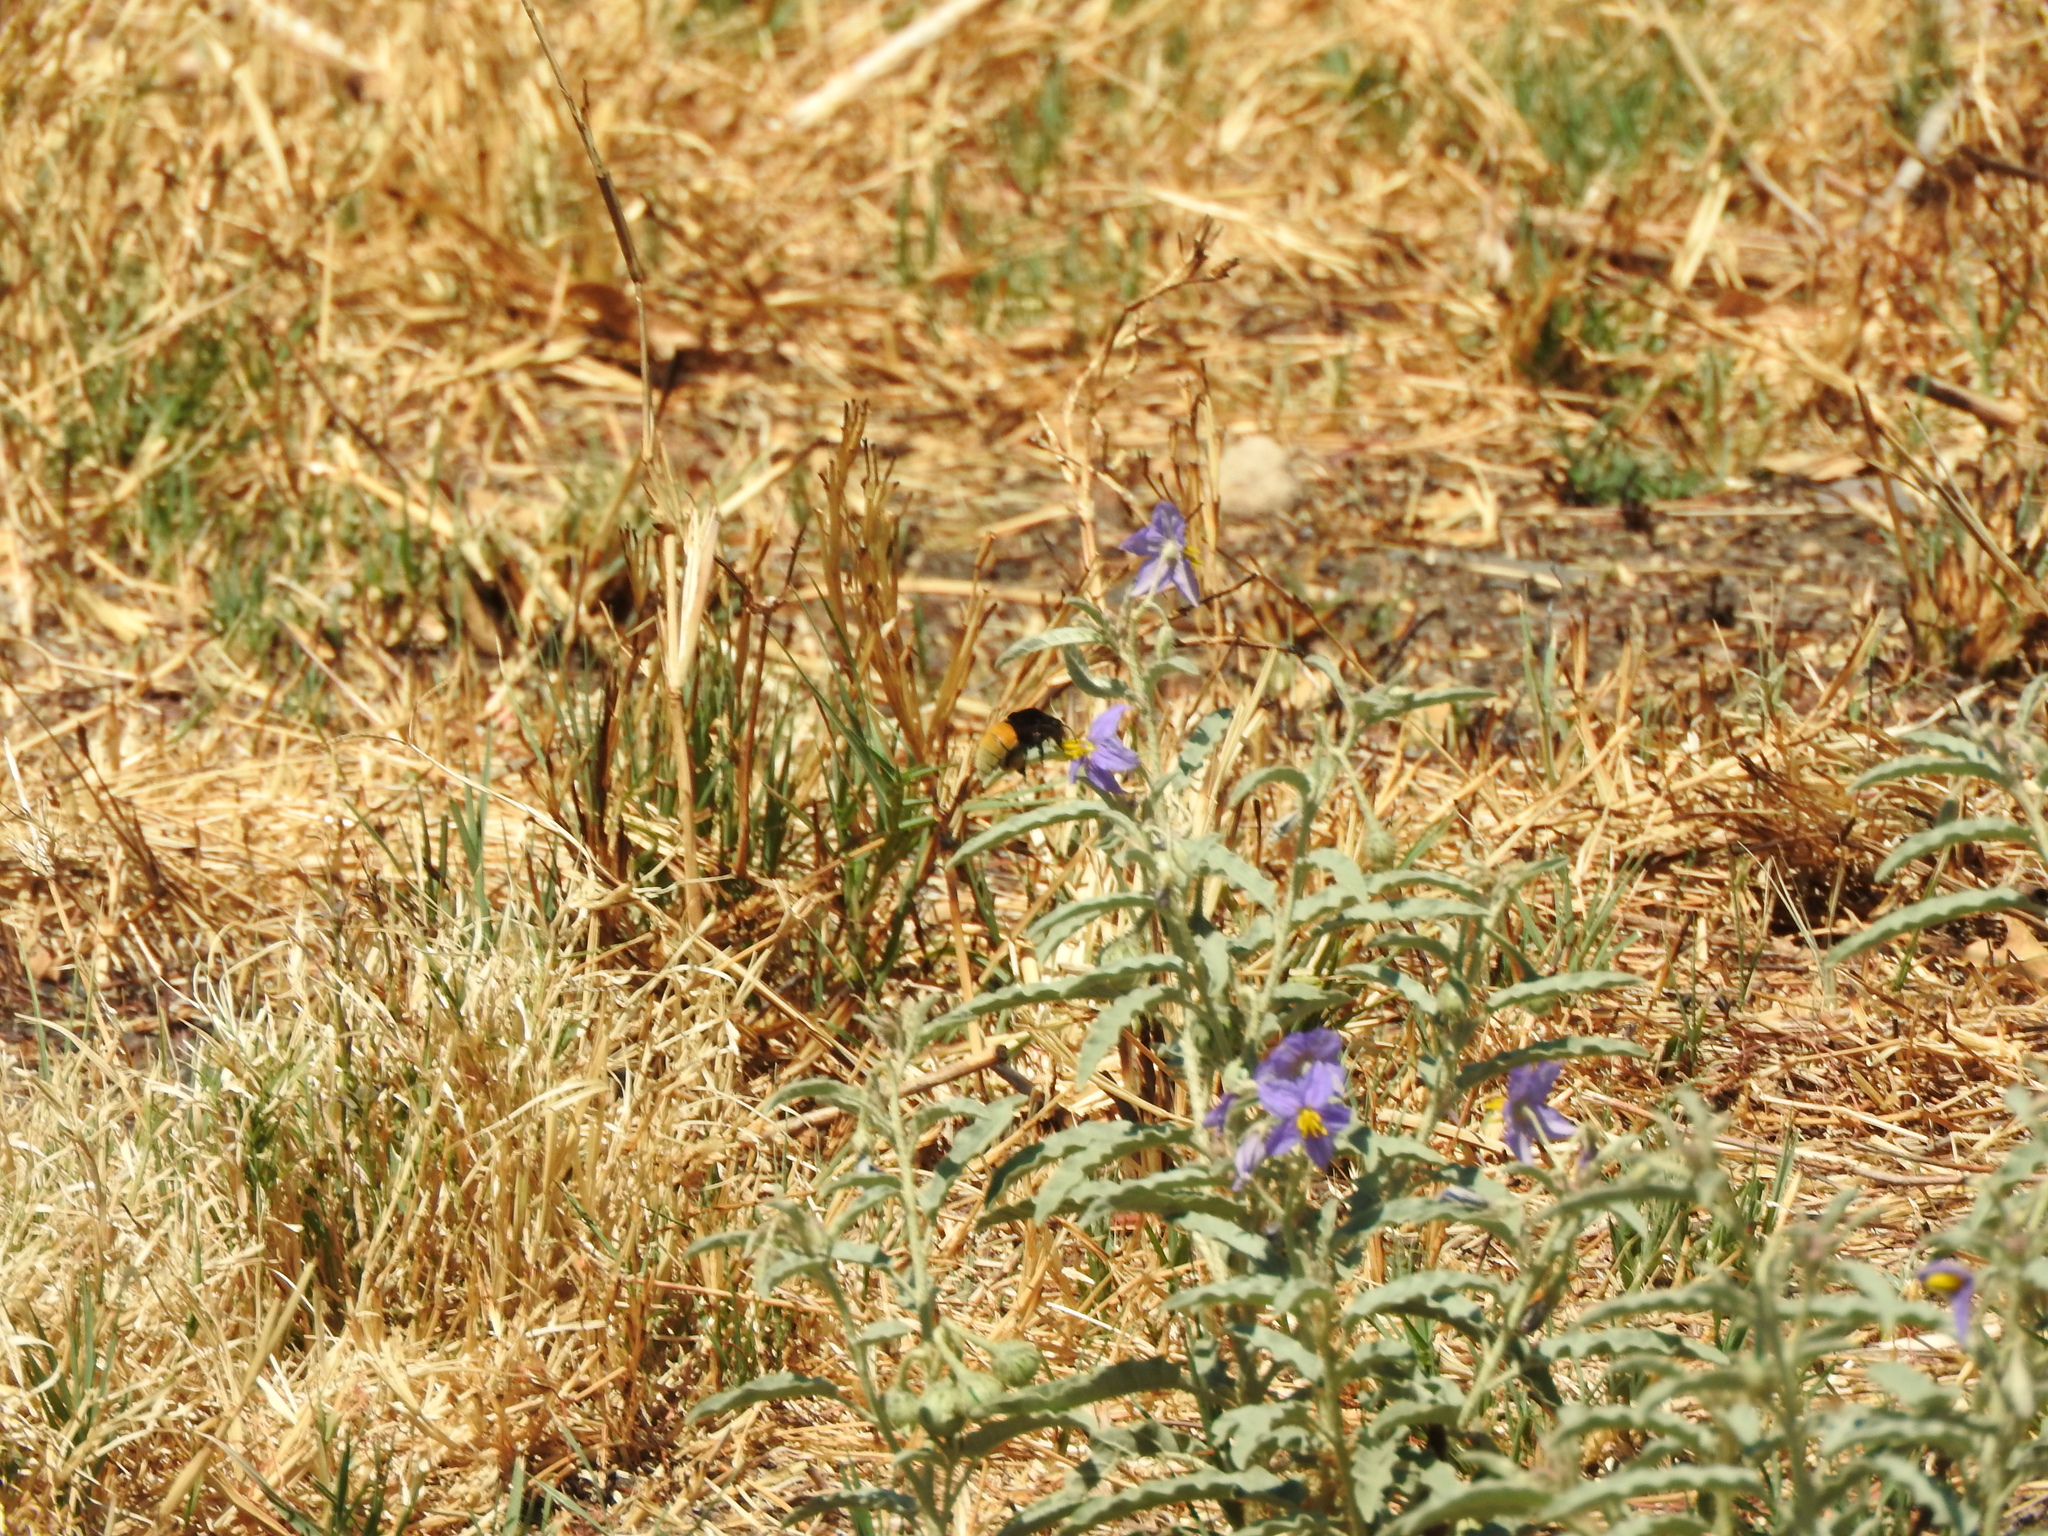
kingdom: Animalia
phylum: Arthropoda
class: Insecta
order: Hymenoptera
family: Apidae
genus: Eulaema
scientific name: Eulaema polychroma
